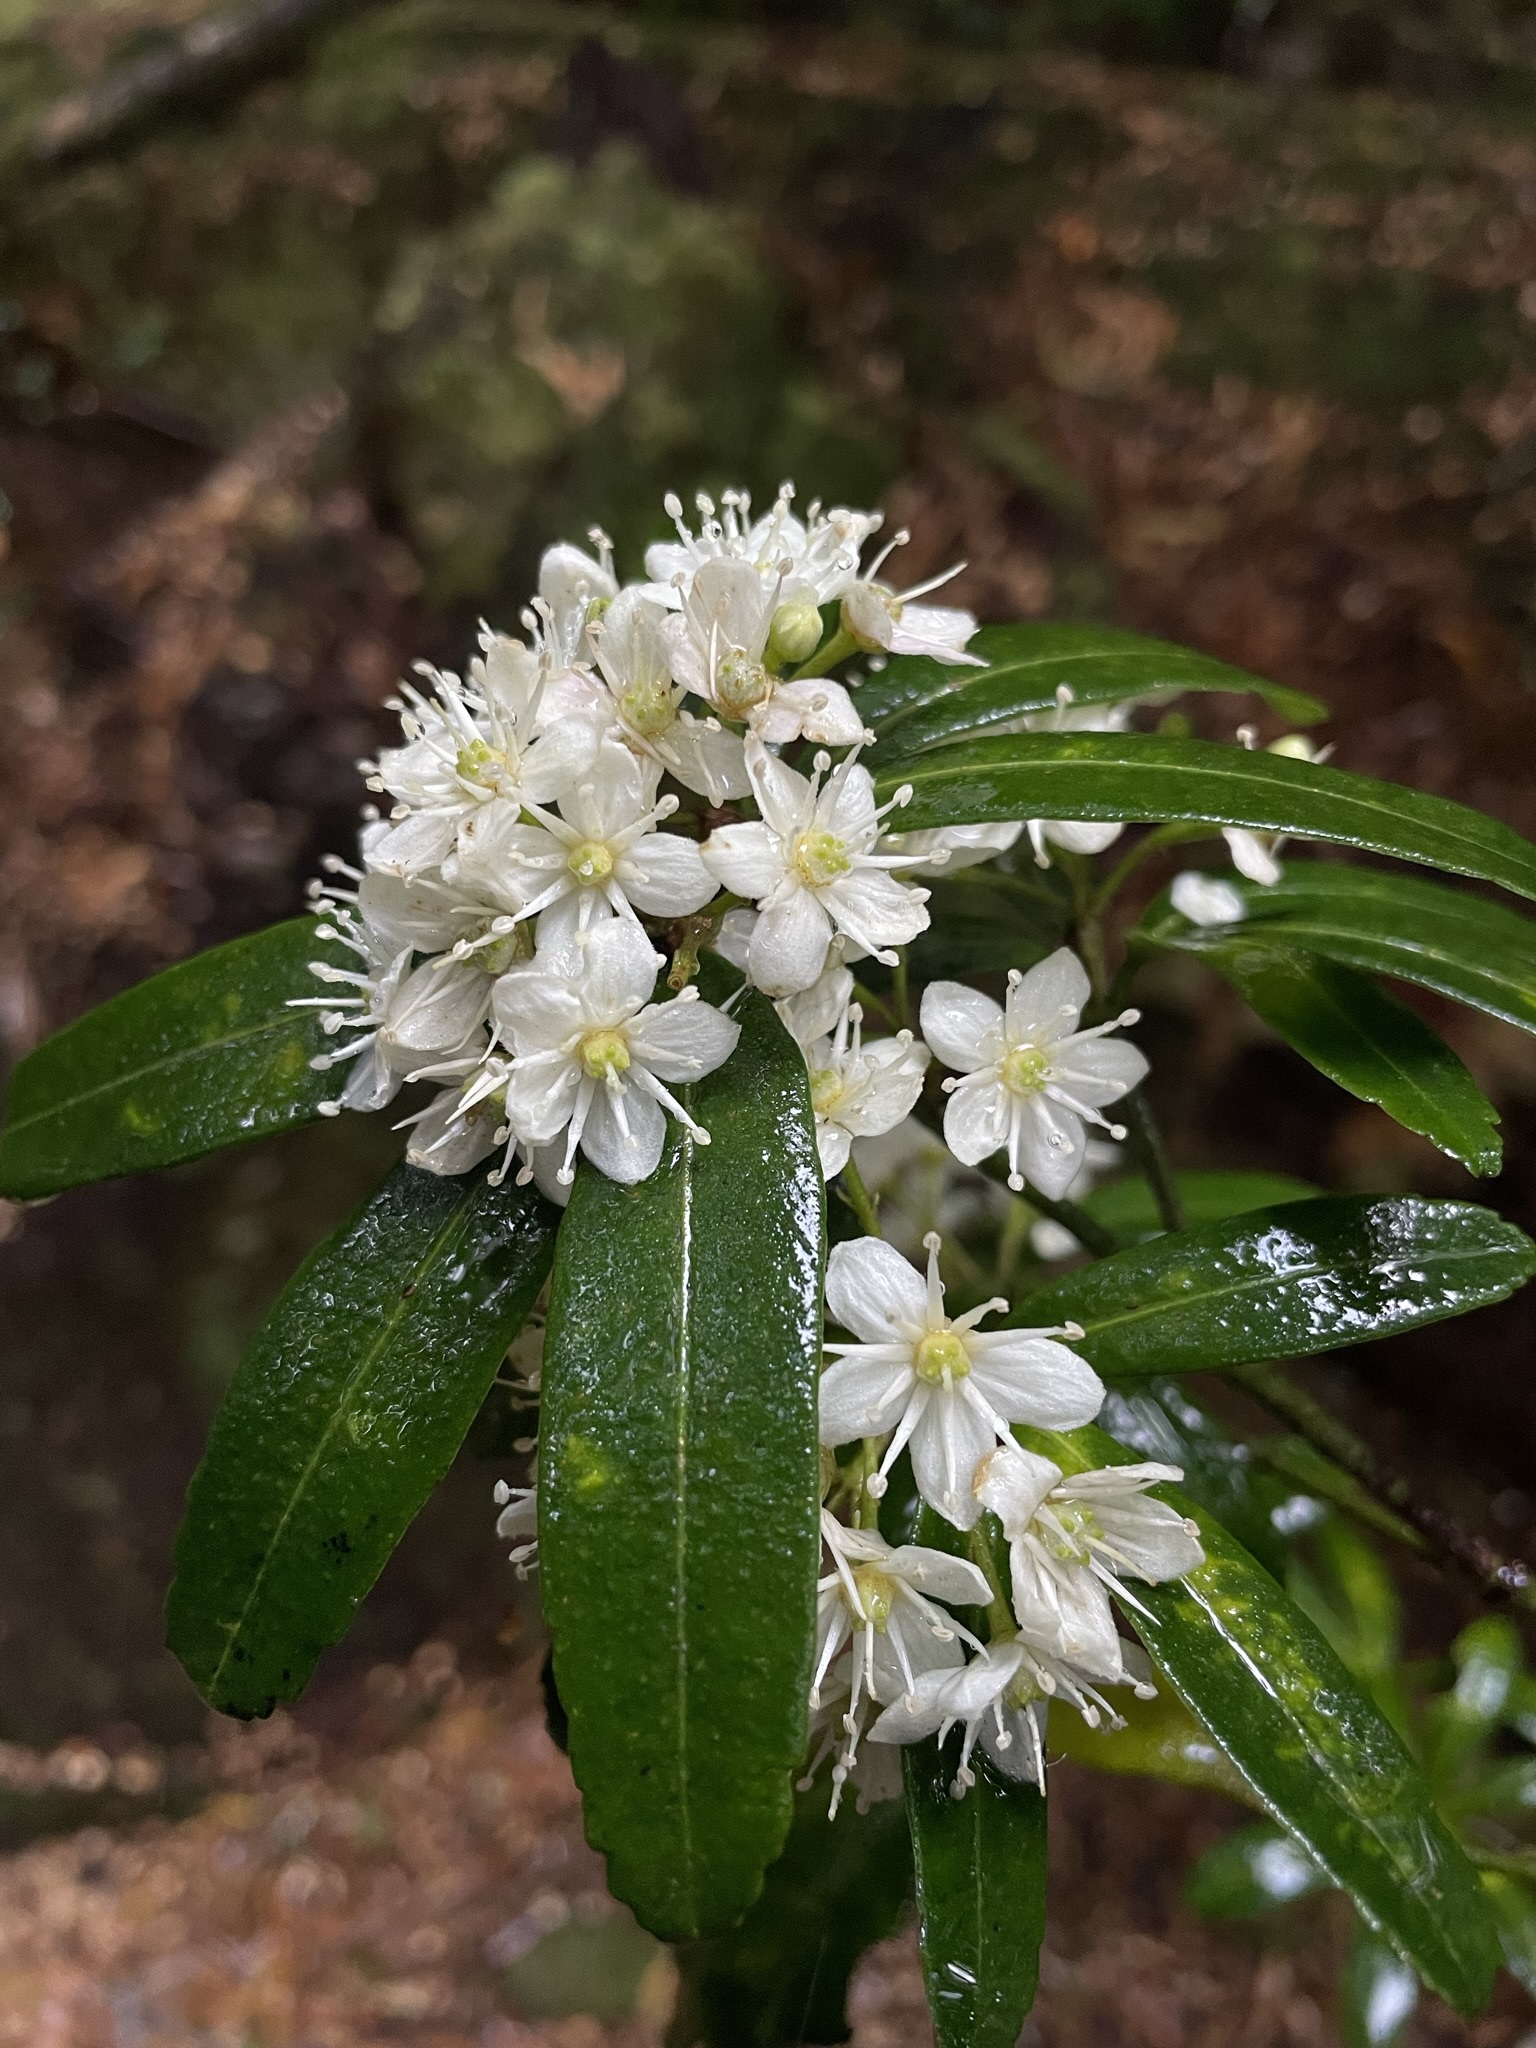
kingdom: Plantae
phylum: Tracheophyta
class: Magnoliopsida
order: Sapindales
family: Rutaceae
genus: Acradenia
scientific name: Acradenia frankliniae
